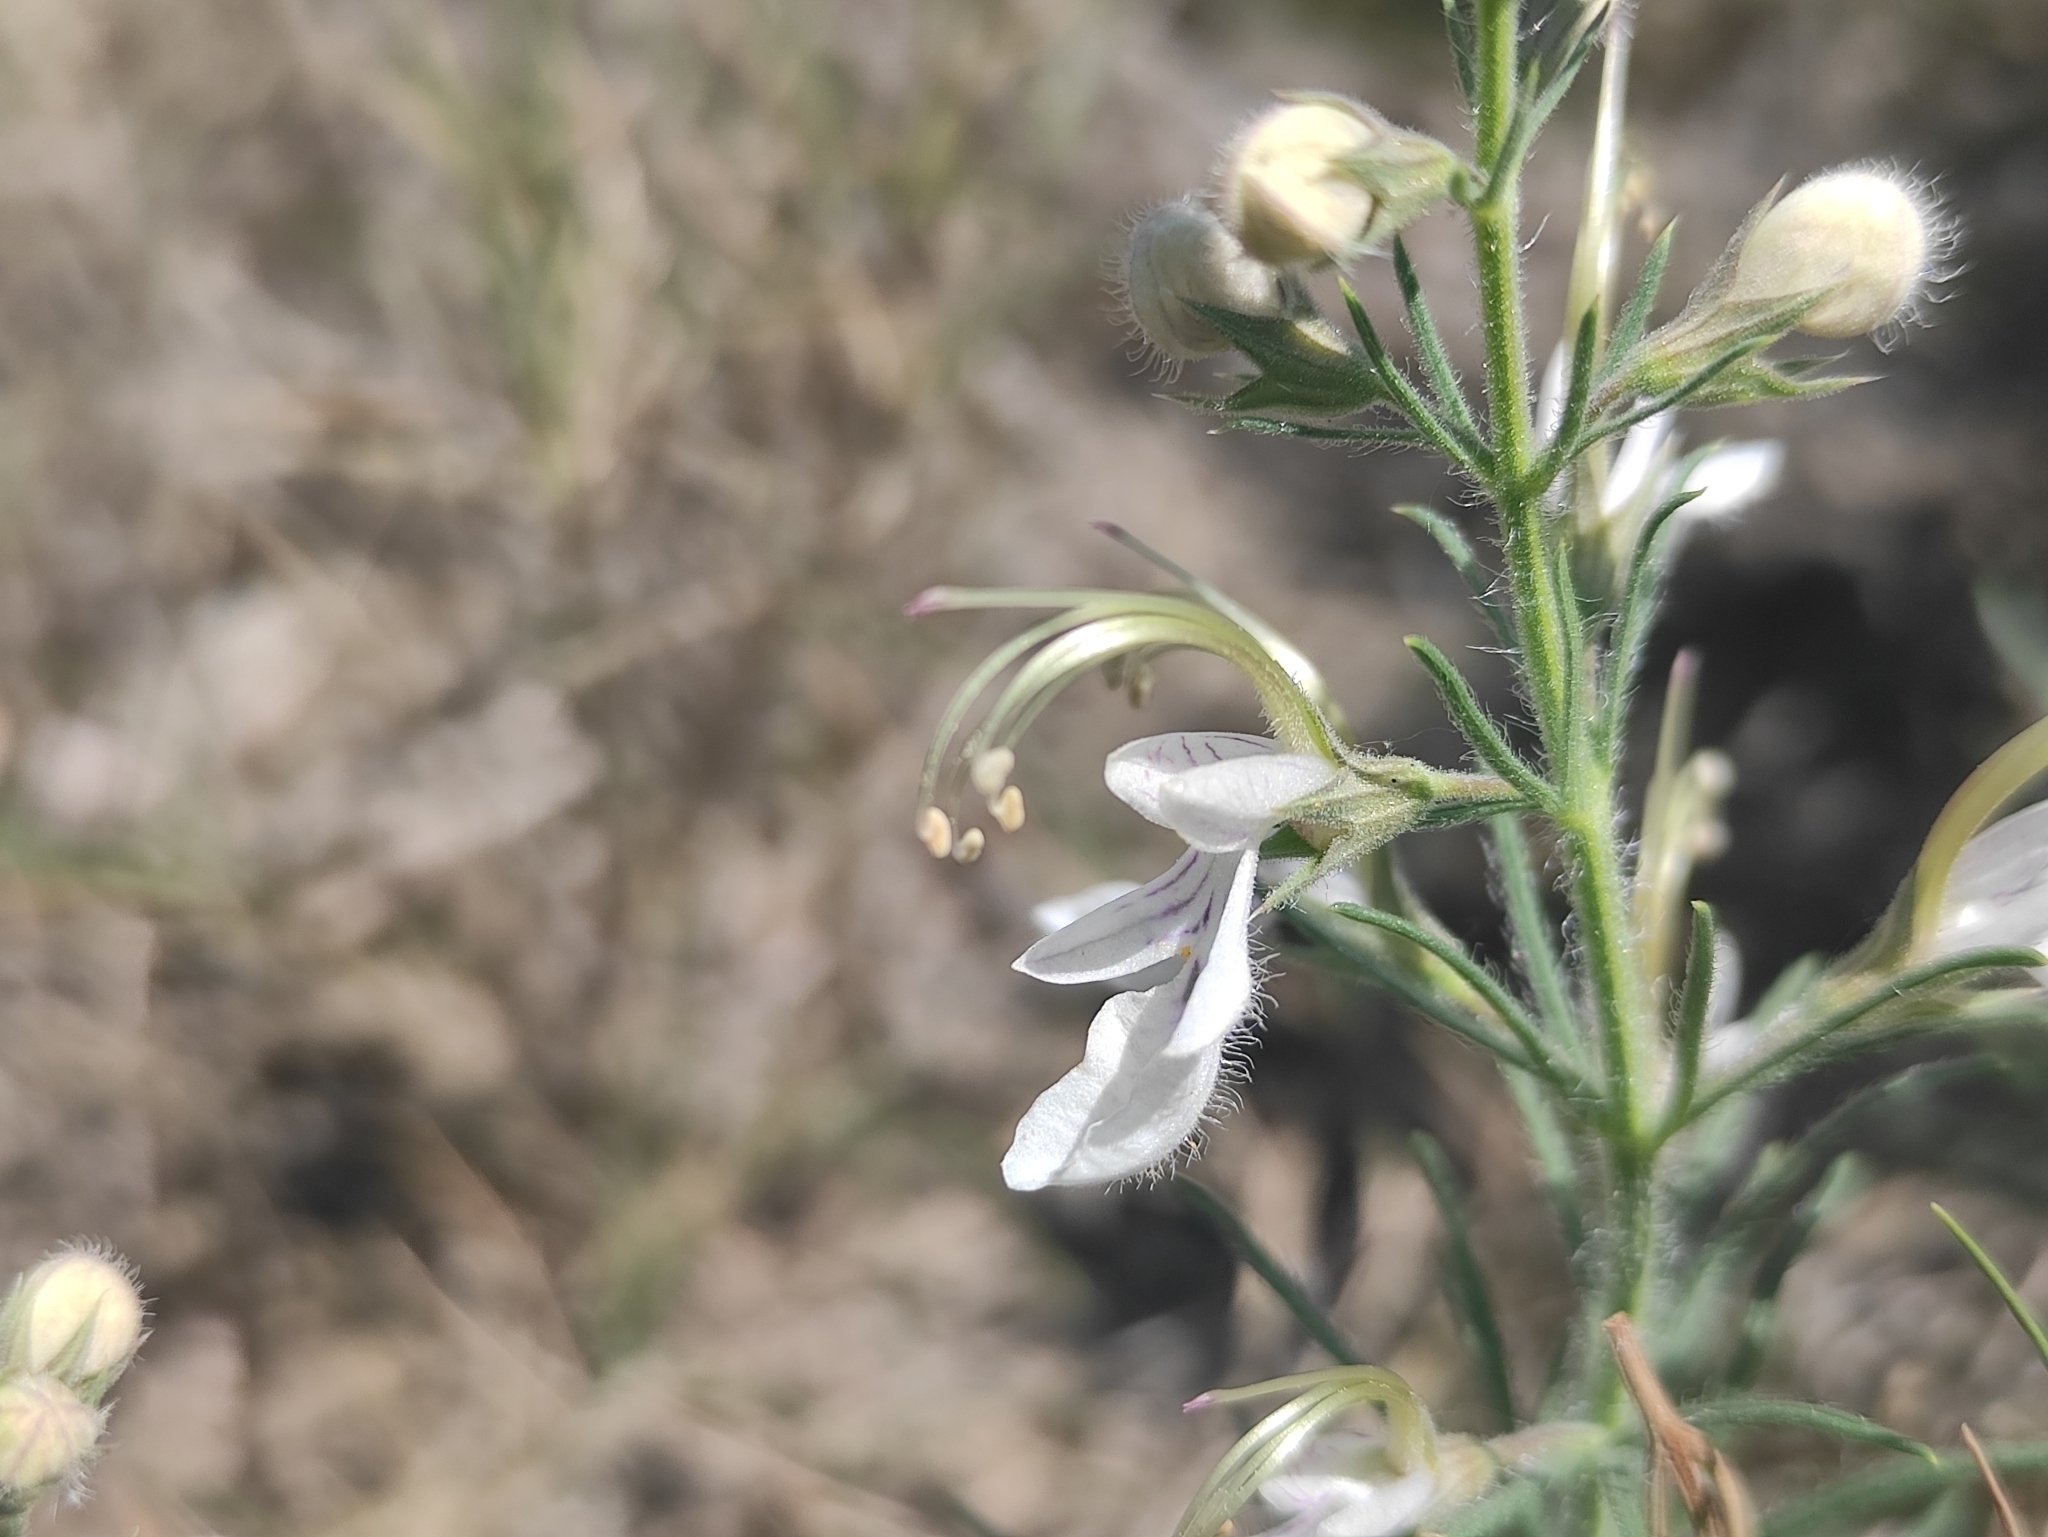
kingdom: Plantae
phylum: Tracheophyta
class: Magnoliopsida
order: Lamiales
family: Lamiaceae
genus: Teucrium
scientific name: Teucrium pseudochamaepitys
